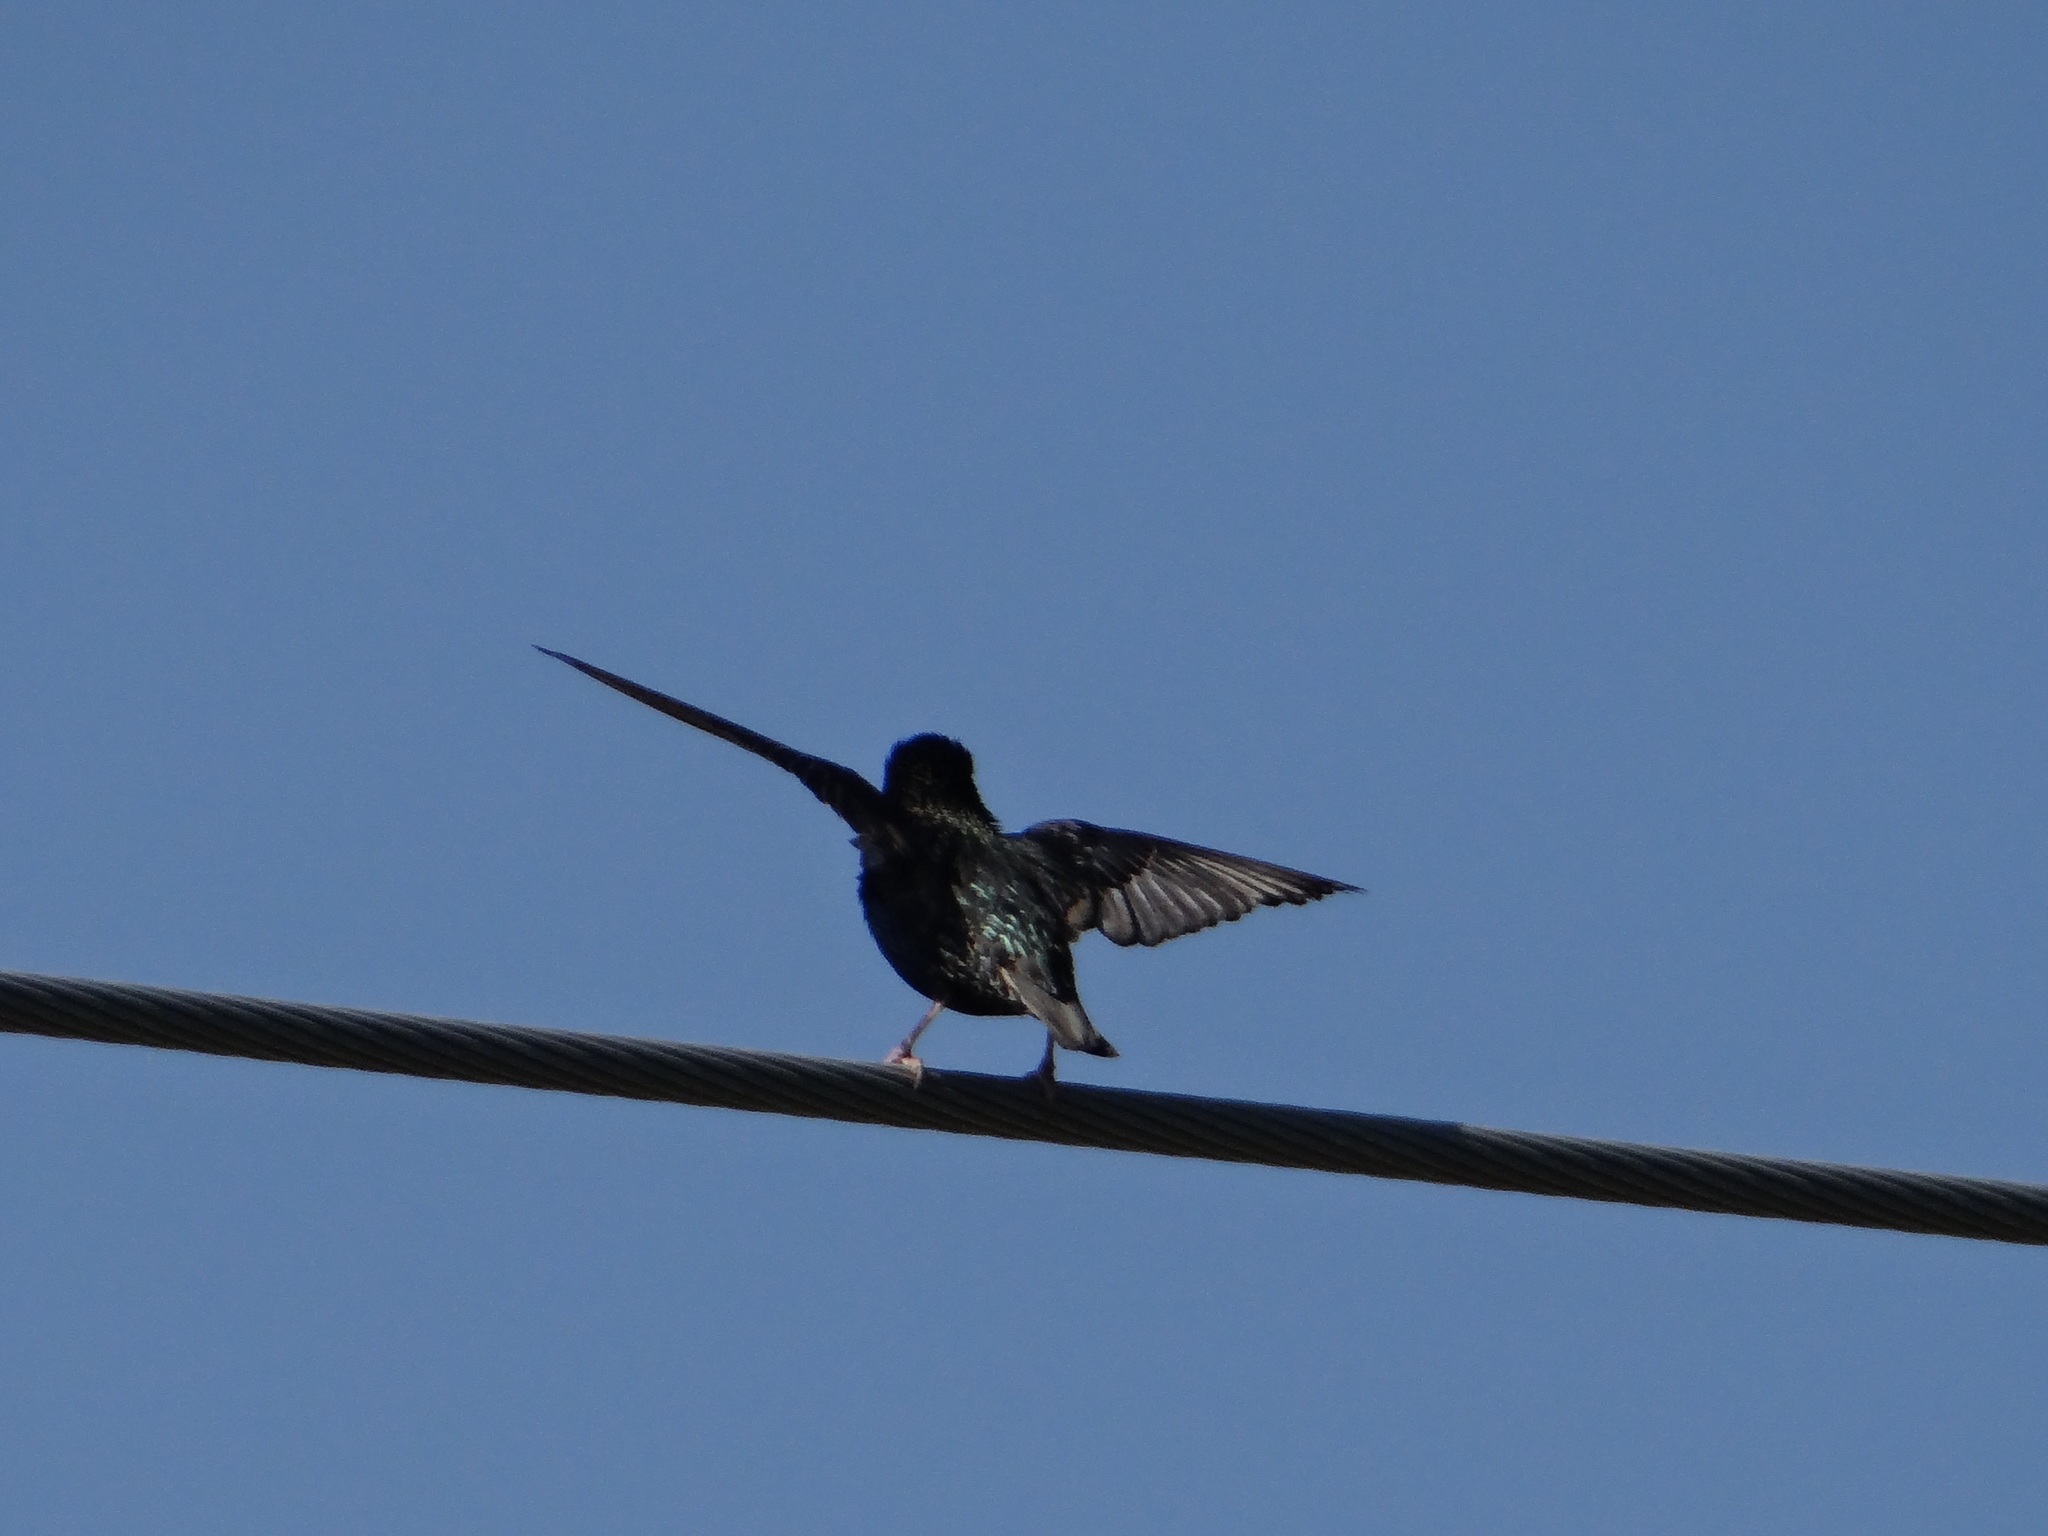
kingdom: Animalia
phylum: Chordata
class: Aves
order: Passeriformes
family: Sturnidae
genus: Sturnus
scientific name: Sturnus vulgaris
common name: Common starling
